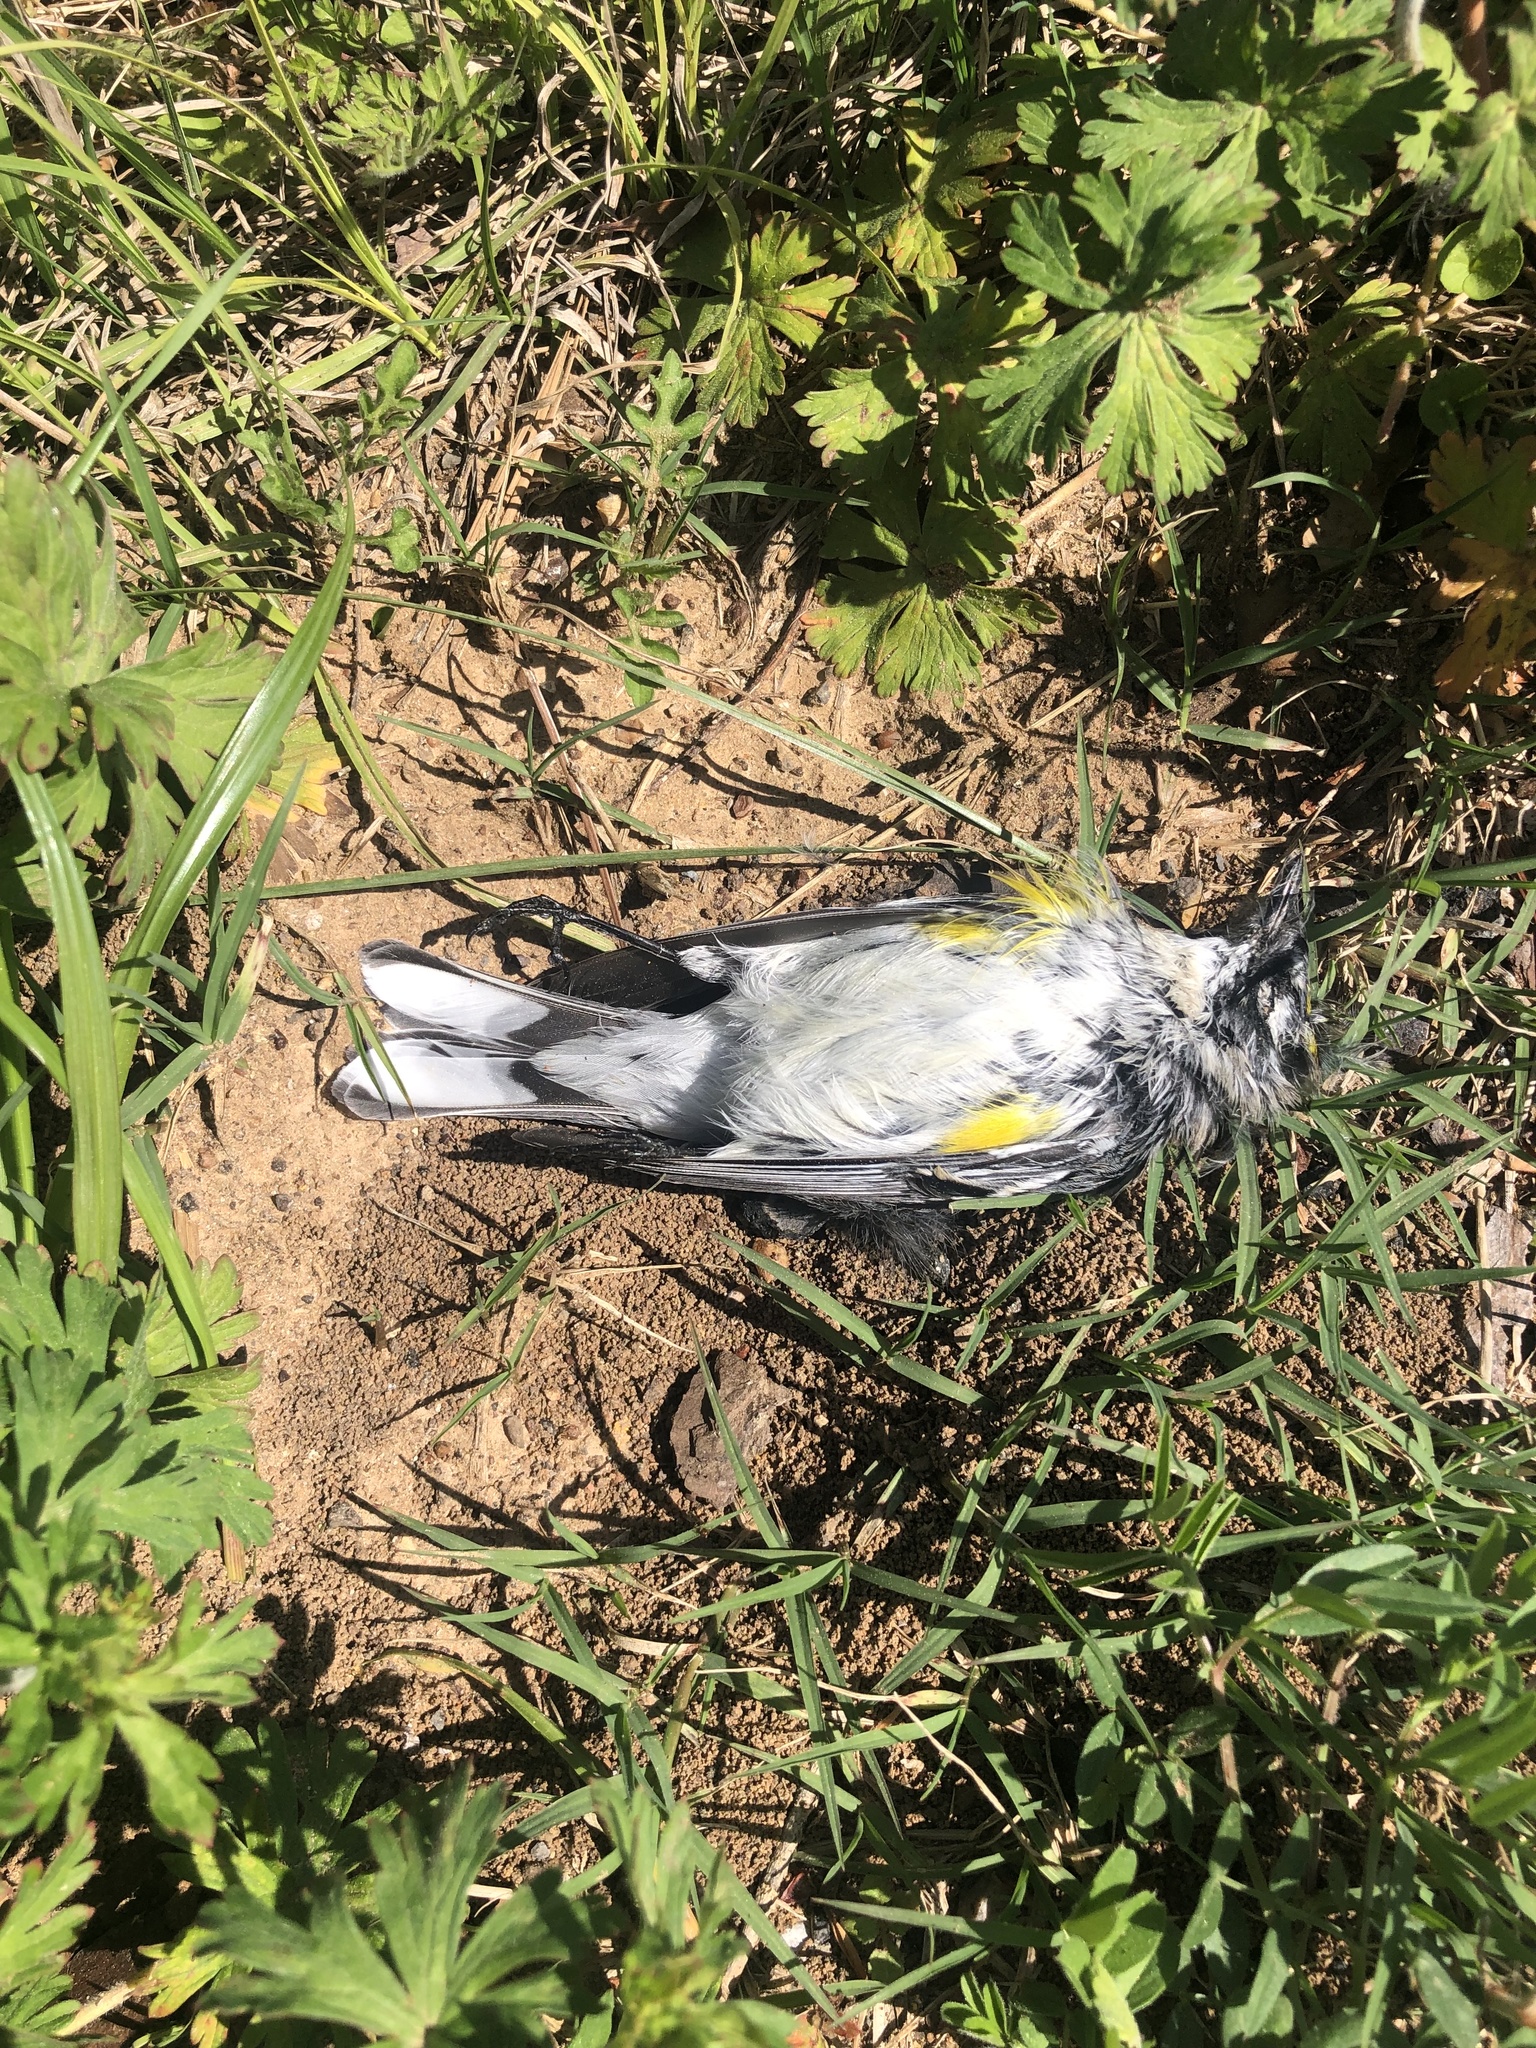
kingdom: Animalia
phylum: Chordata
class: Aves
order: Passeriformes
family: Parulidae
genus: Setophaga
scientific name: Setophaga coronata
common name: Myrtle warbler
